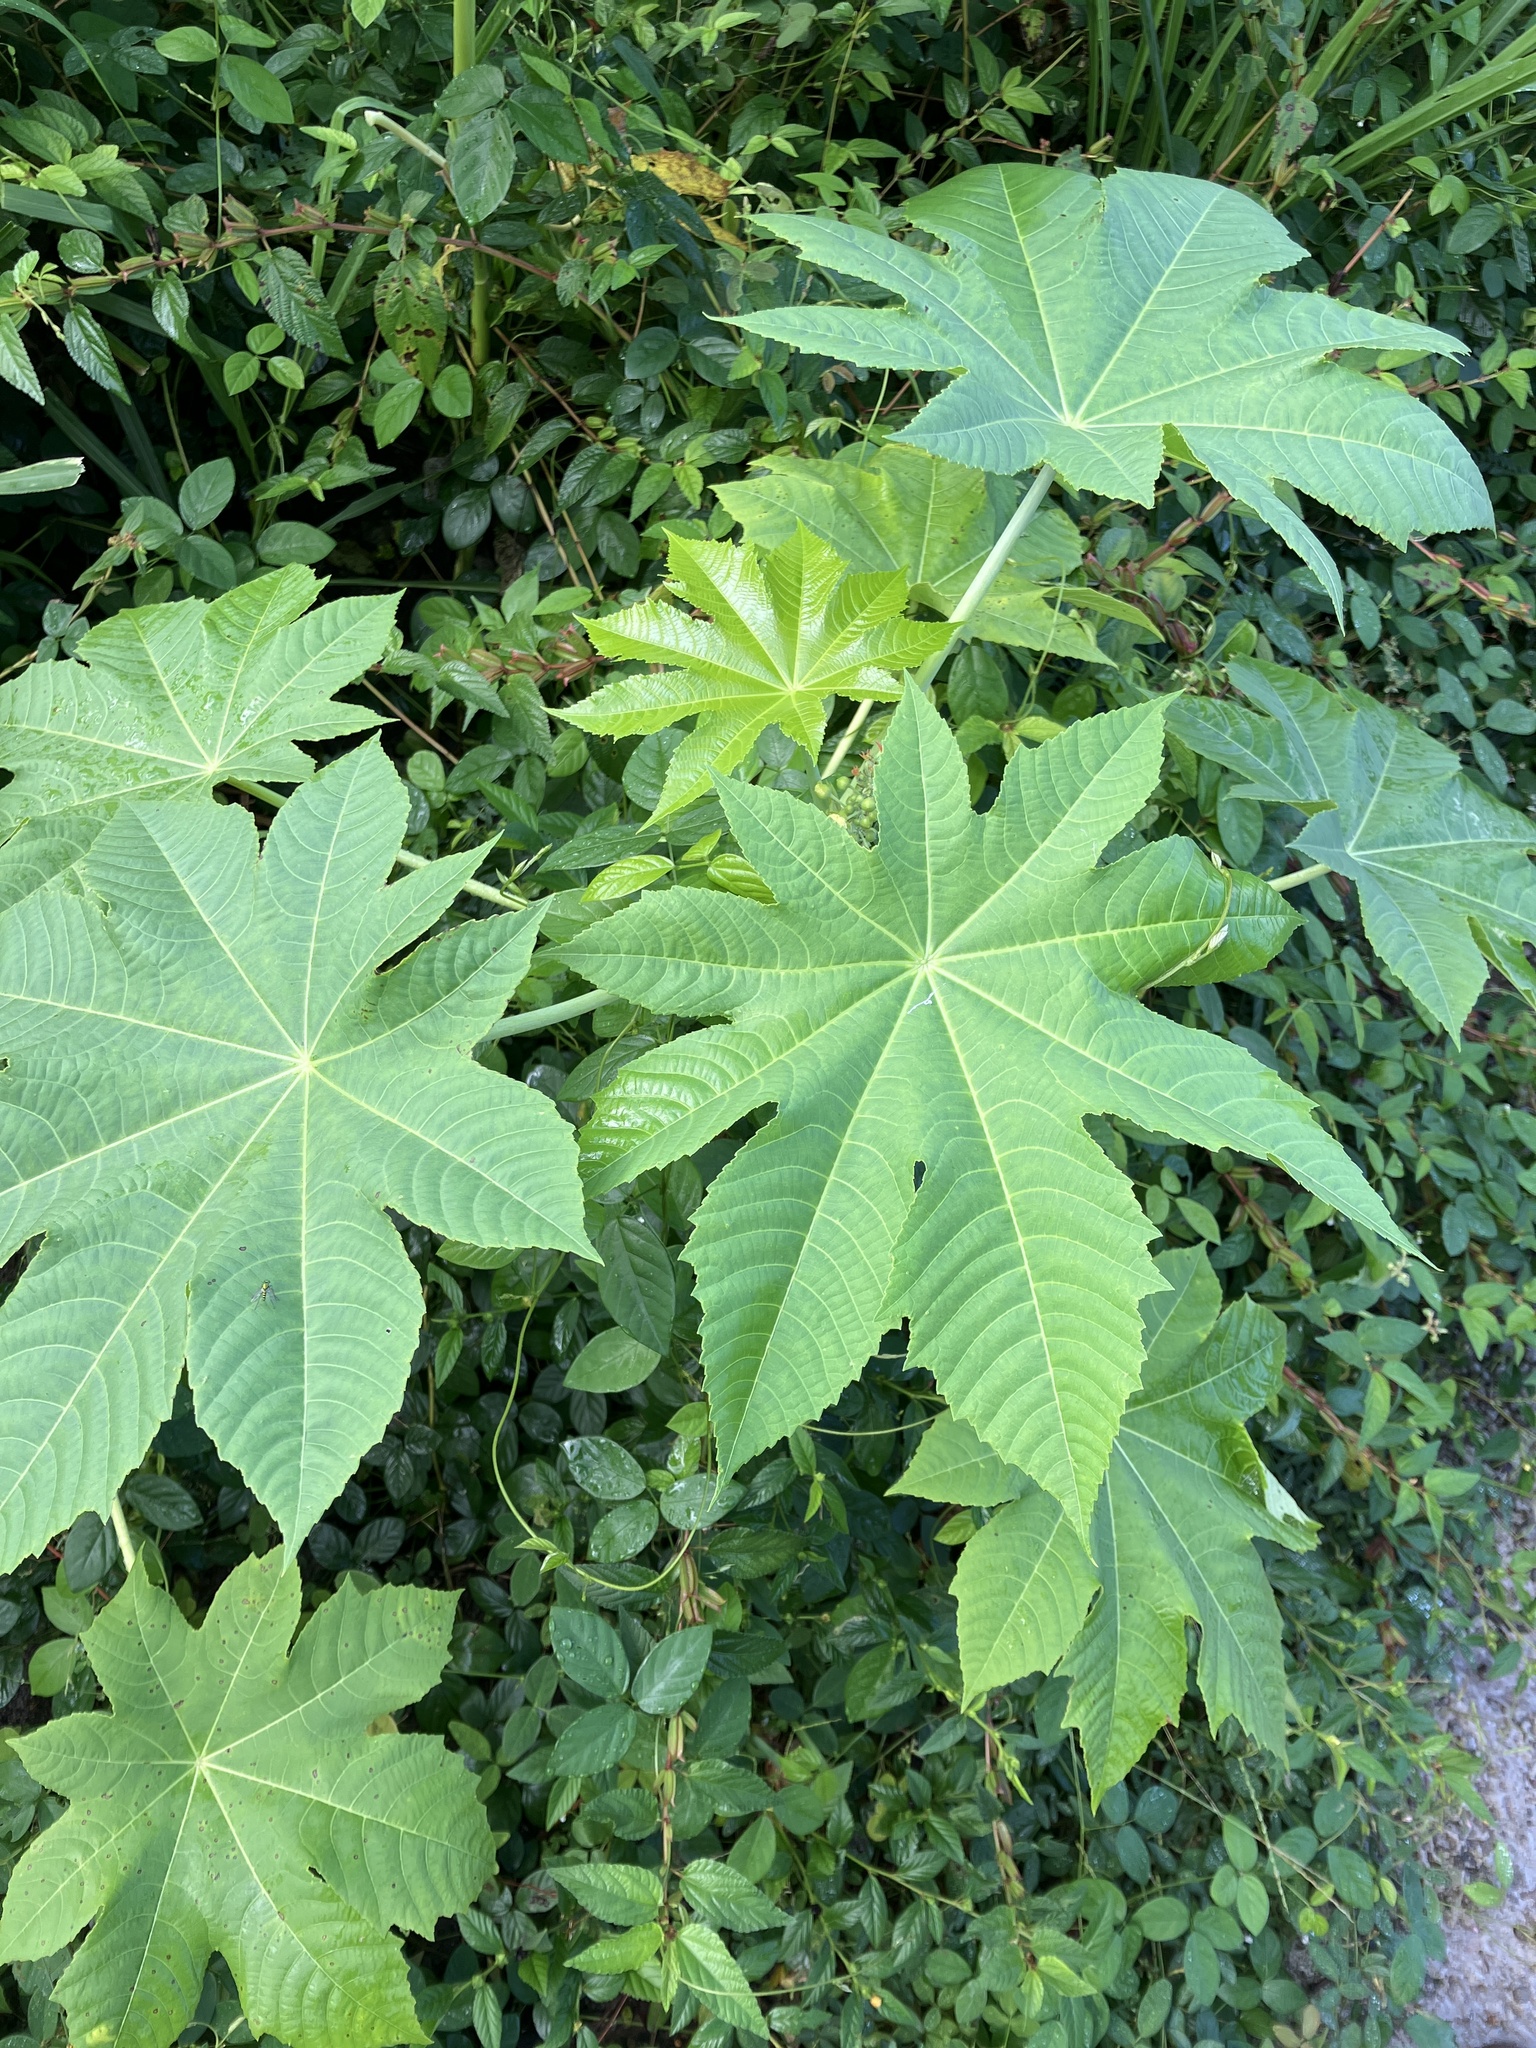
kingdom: Plantae
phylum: Tracheophyta
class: Magnoliopsida
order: Malpighiales
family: Euphorbiaceae
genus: Ricinus
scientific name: Ricinus communis
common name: Castor-oil-plant
